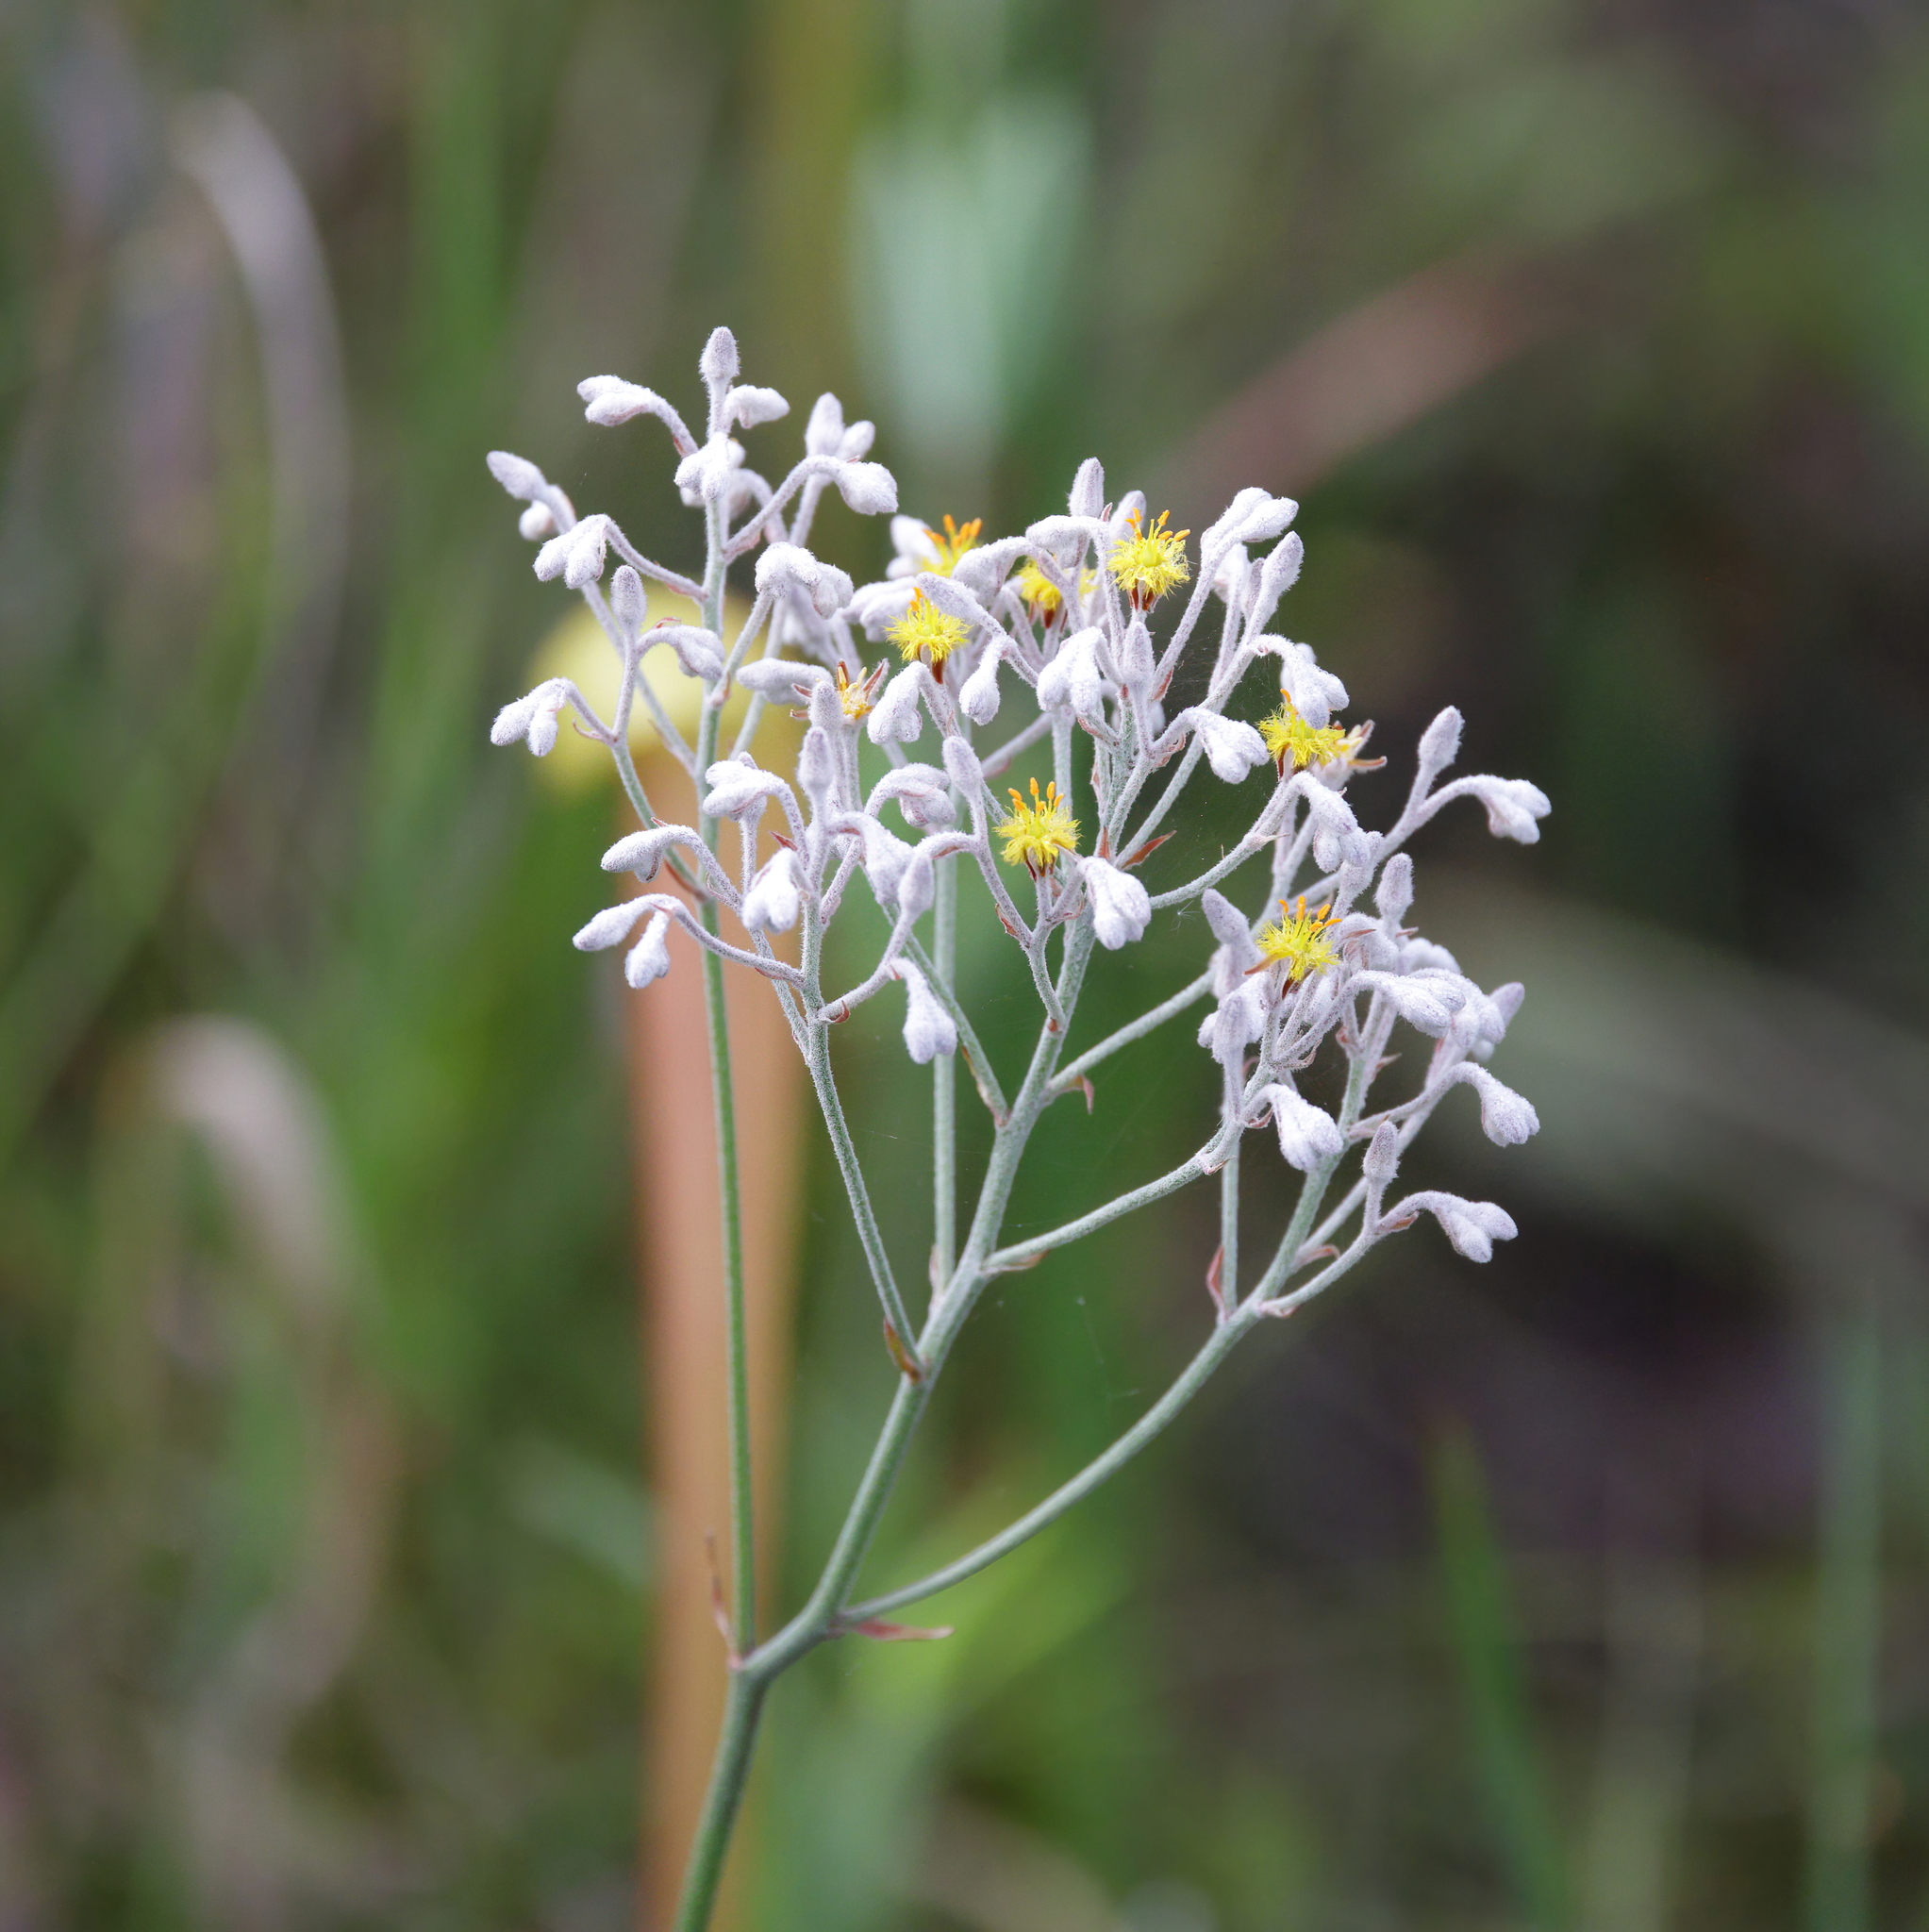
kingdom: Plantae
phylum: Tracheophyta
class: Liliopsida
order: Dioscoreales
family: Nartheciaceae
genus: Lophiola
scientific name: Lophiola aurea
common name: Golden-crest
